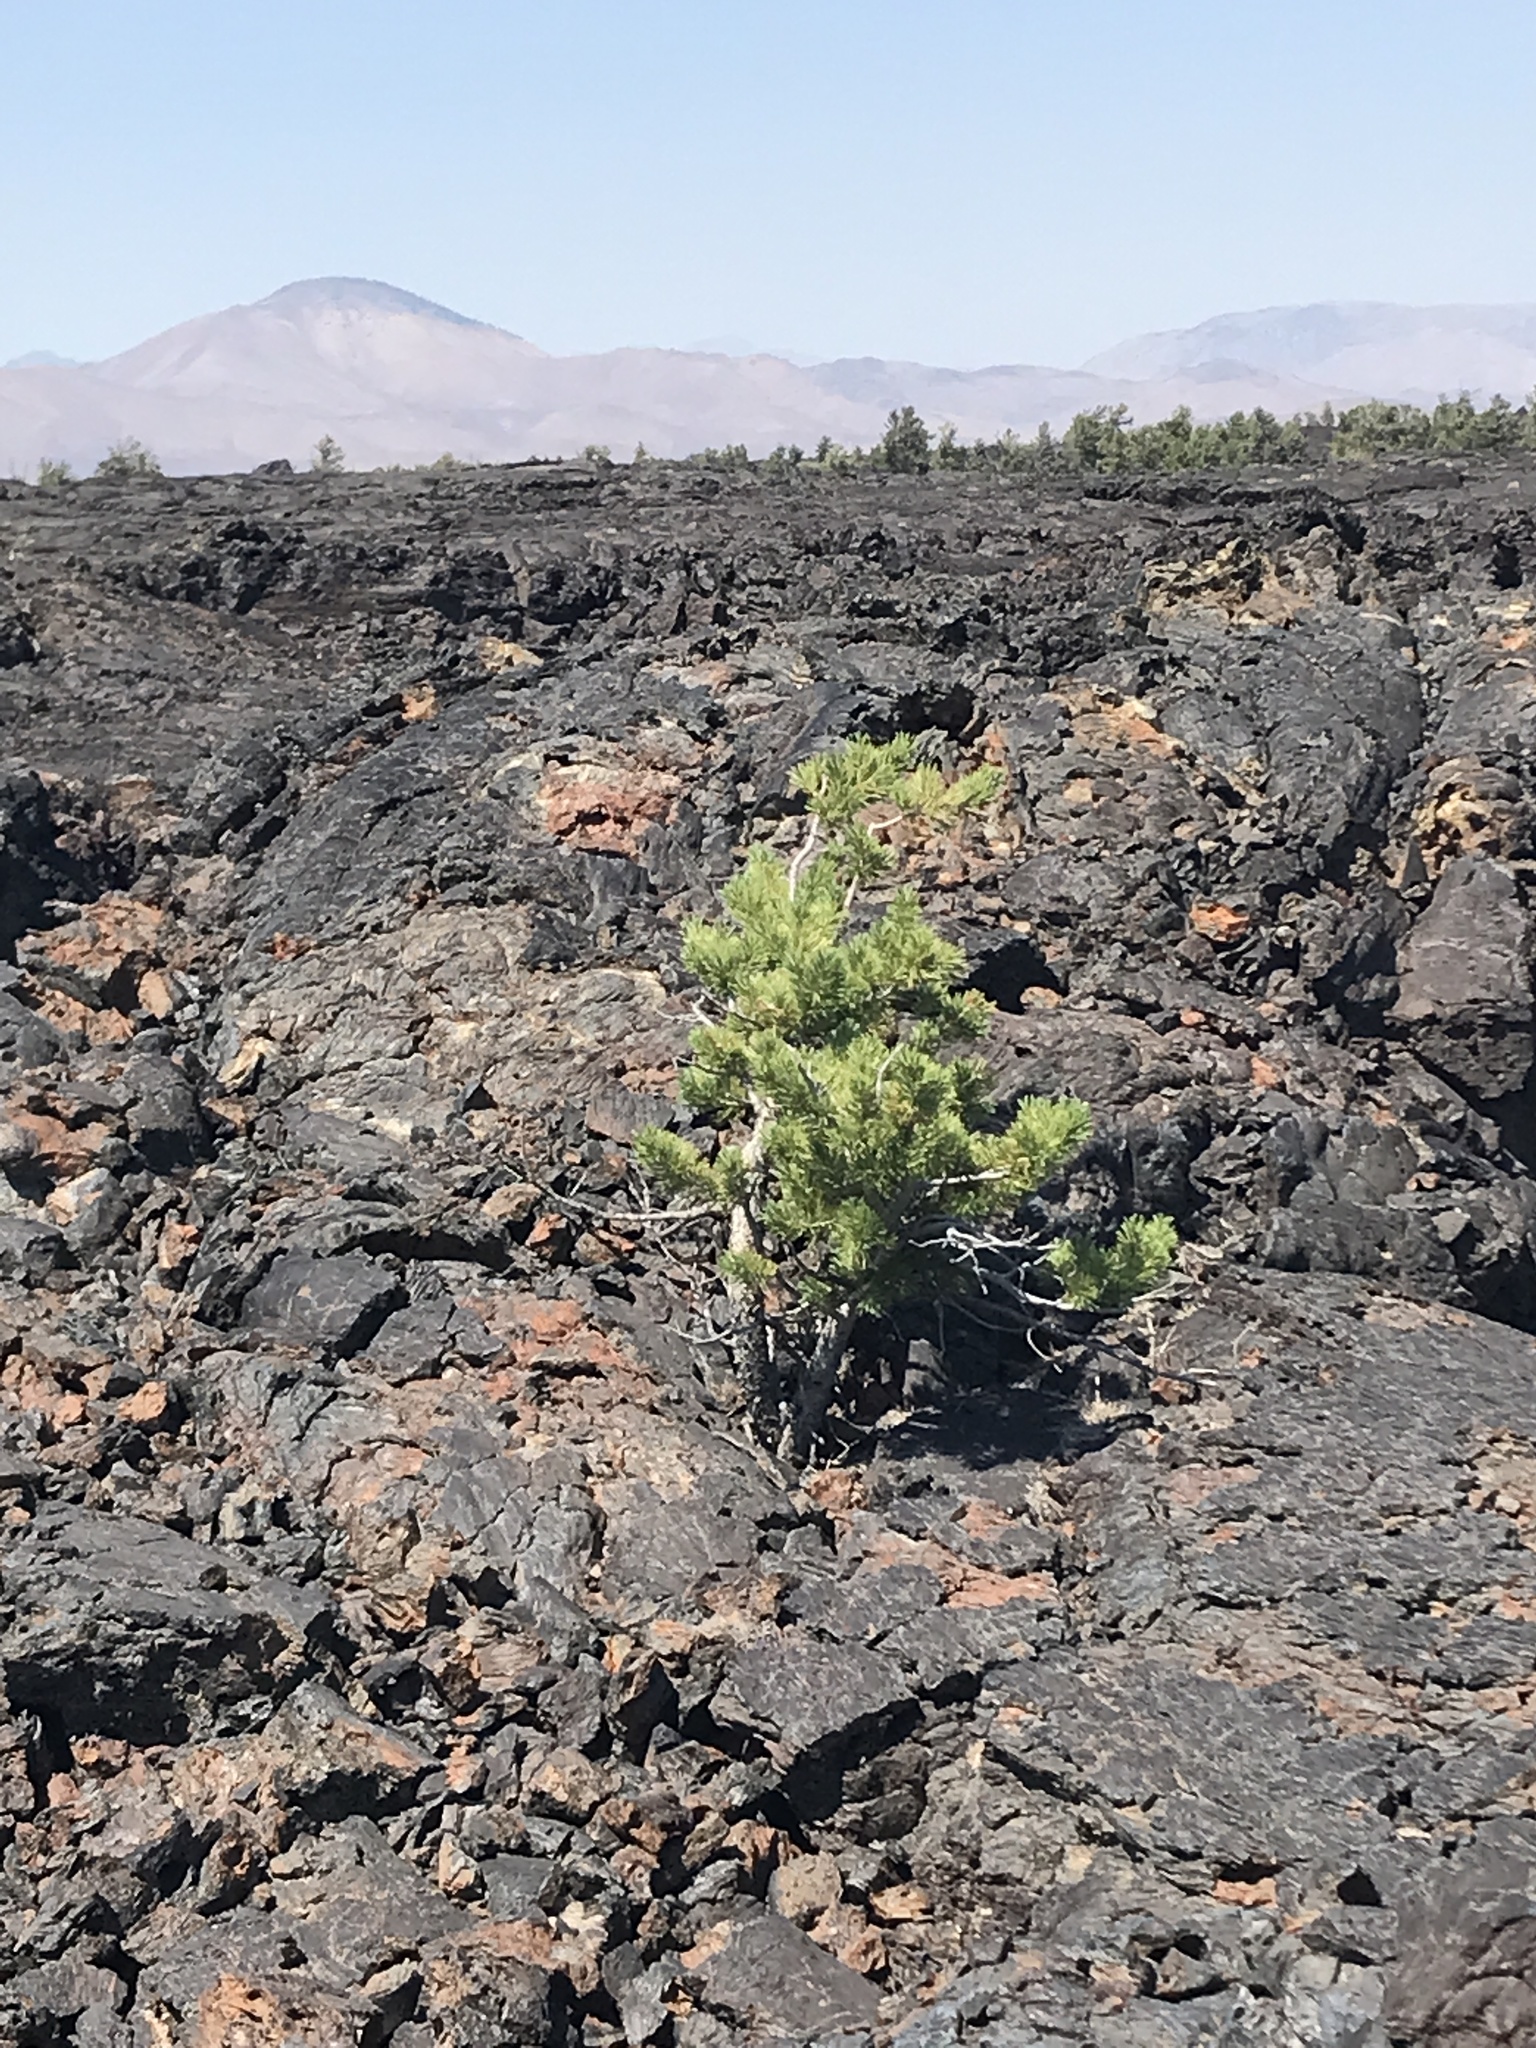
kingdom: Plantae
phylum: Tracheophyta
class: Pinopsida
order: Pinales
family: Pinaceae
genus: Pinus
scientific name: Pinus flexilis
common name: Limber pine
